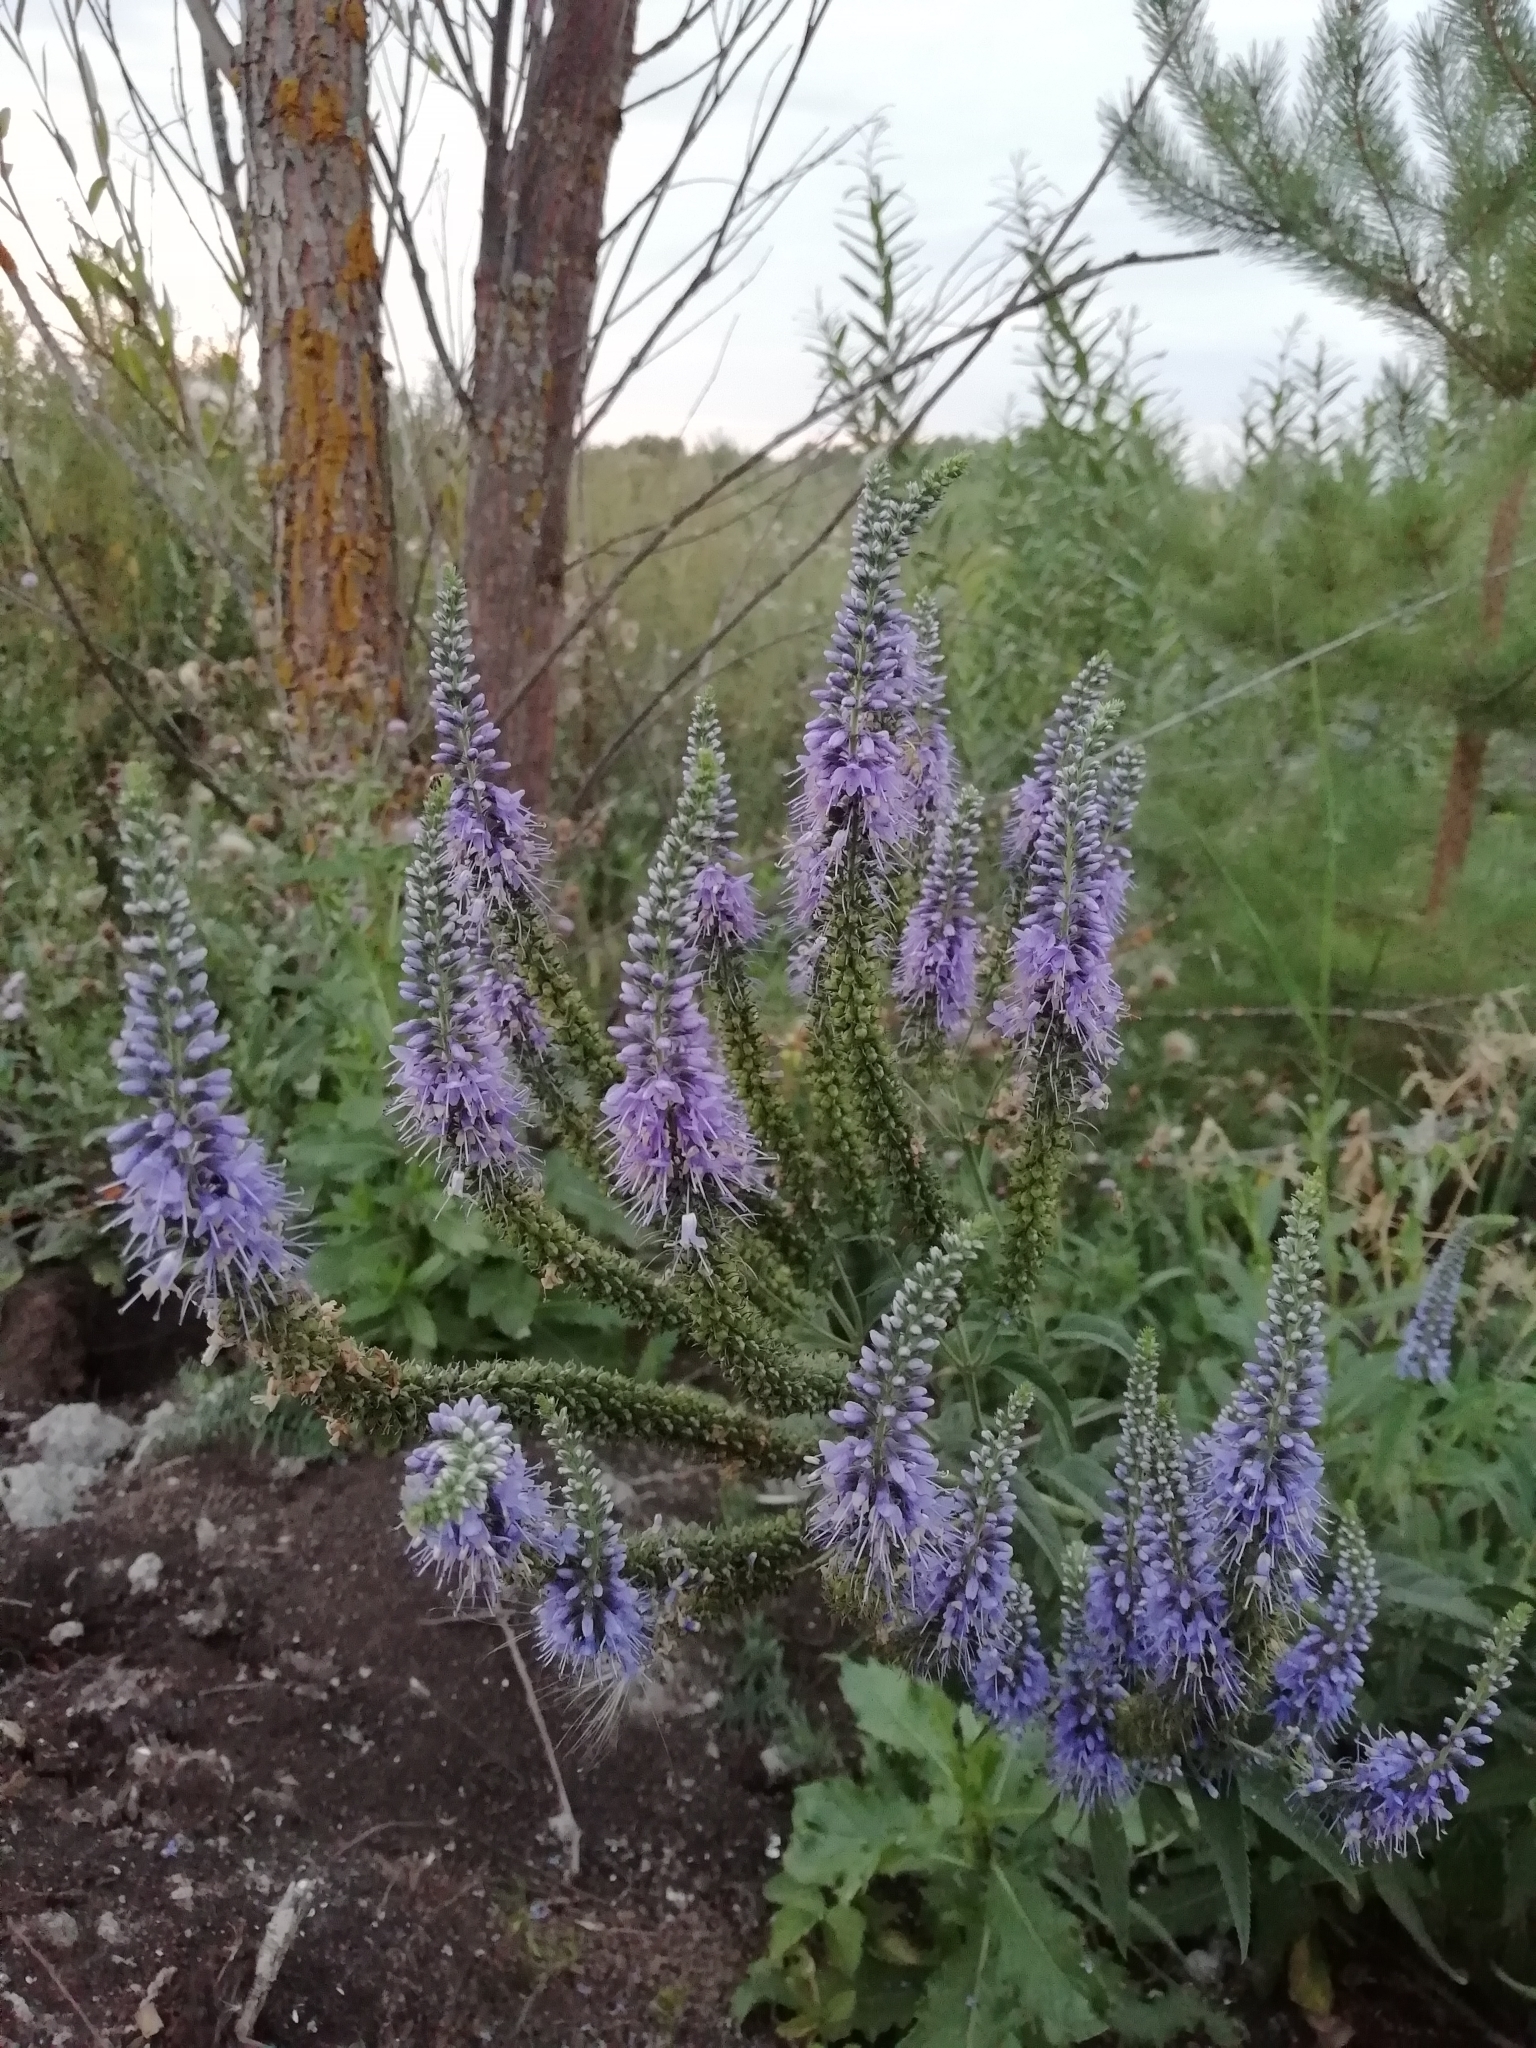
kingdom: Plantae
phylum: Tracheophyta
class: Magnoliopsida
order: Lamiales
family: Plantaginaceae
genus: Veronica
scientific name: Veronica longifolia
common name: Garden speedwell
